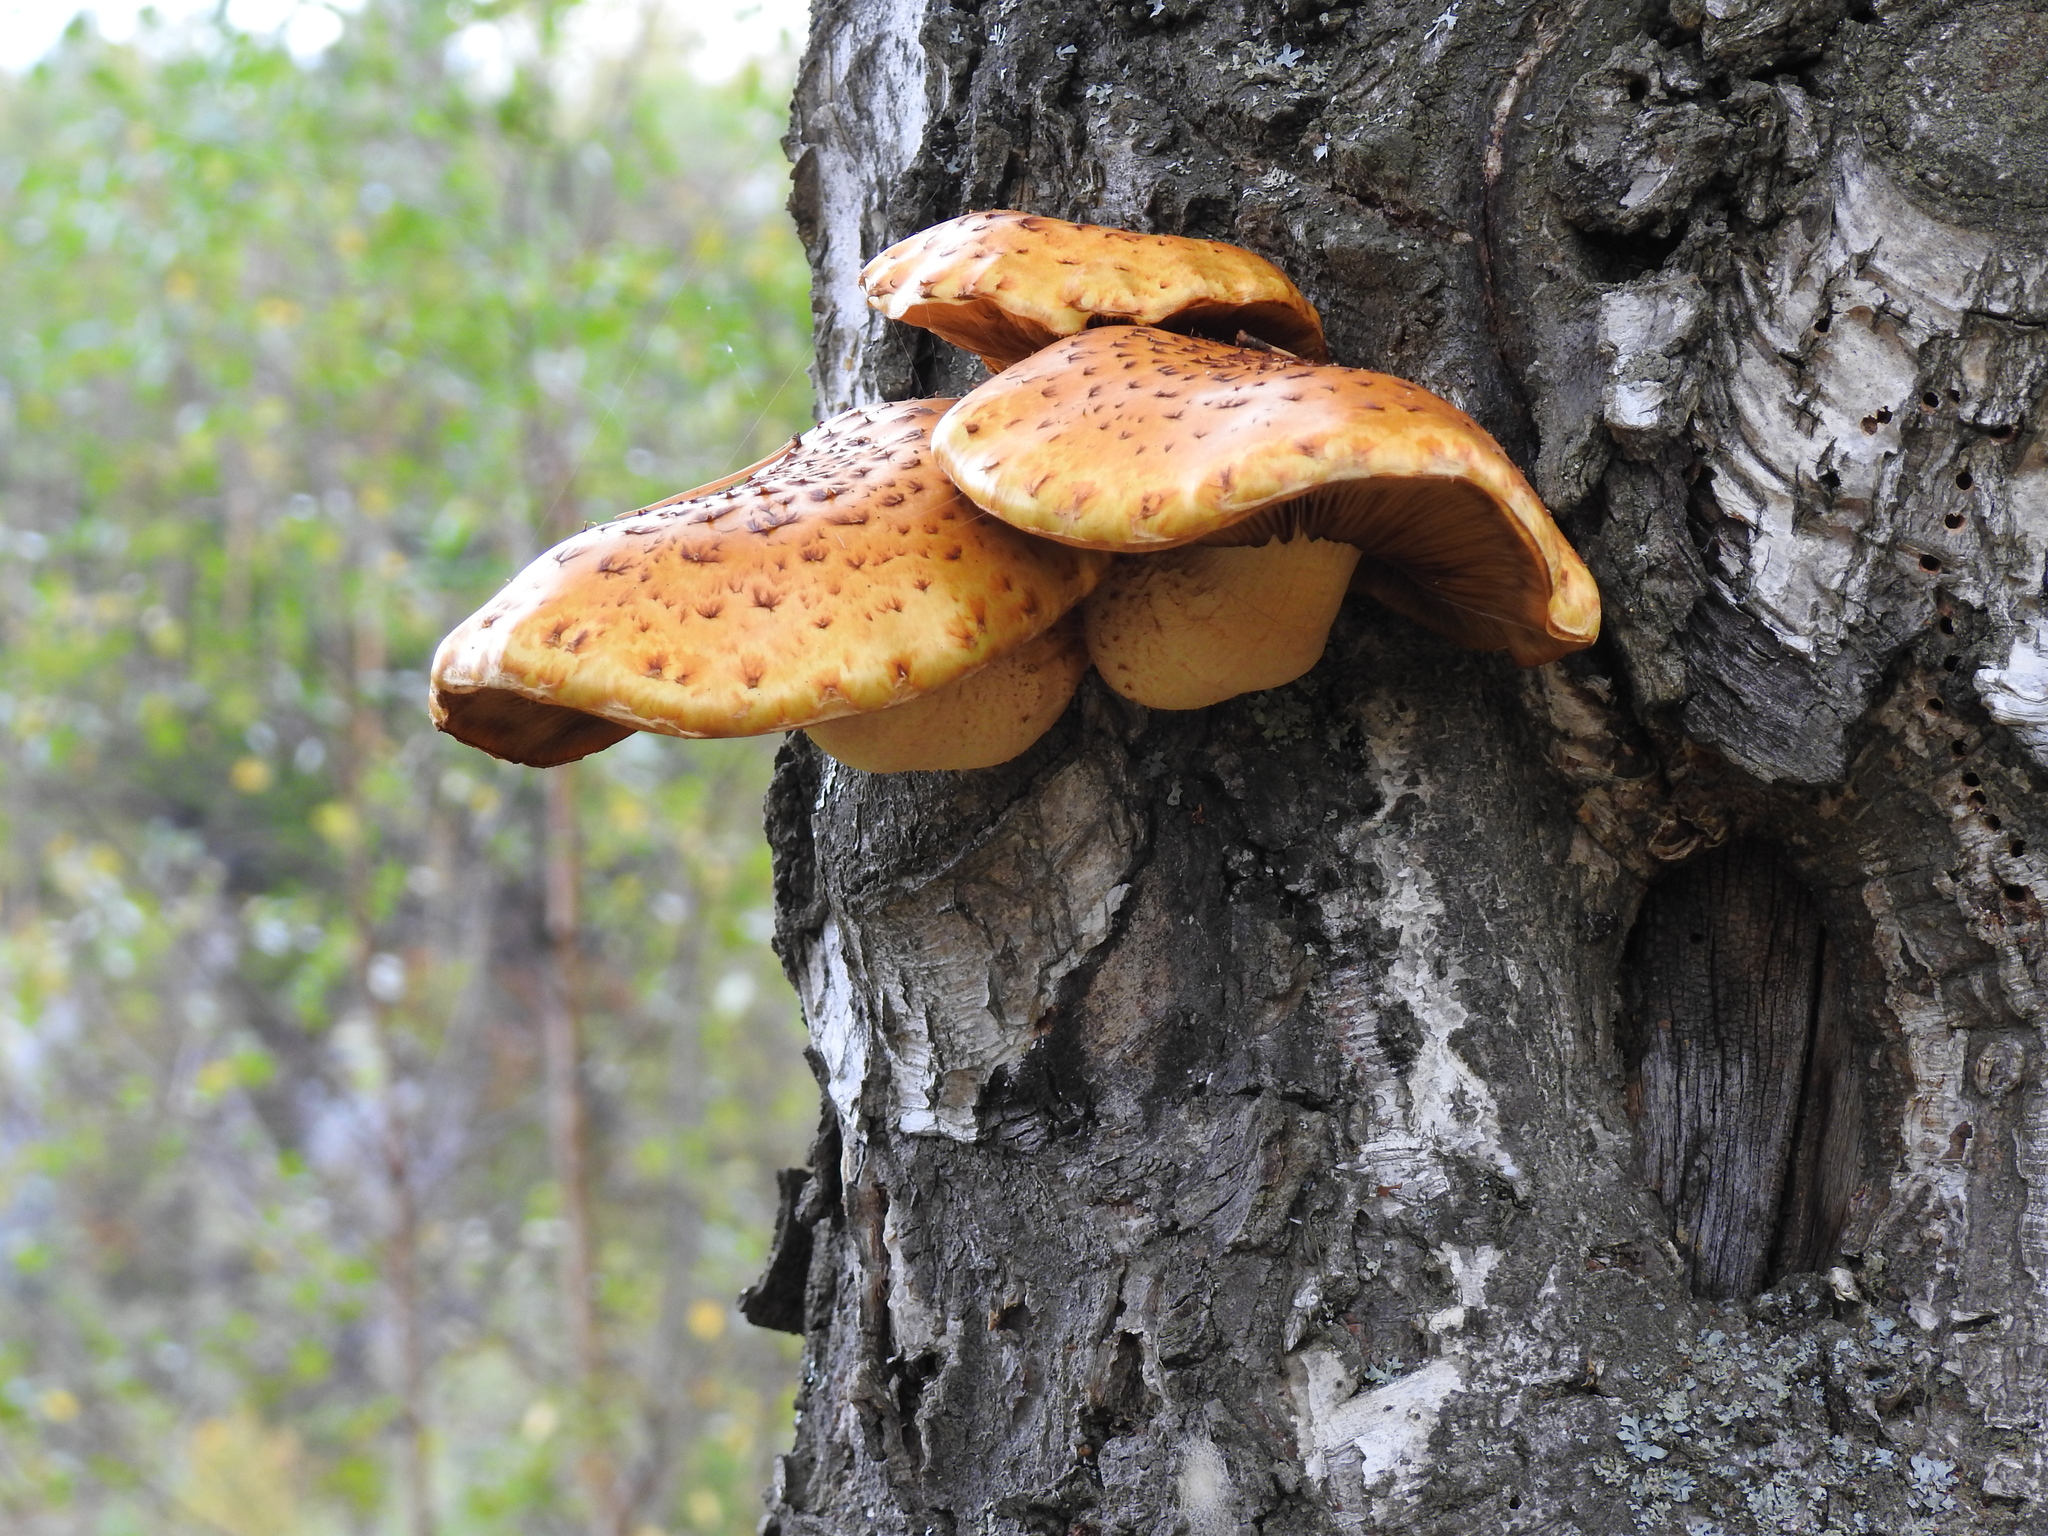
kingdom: Fungi
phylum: Basidiomycota
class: Agaricomycetes
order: Agaricales
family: Strophariaceae
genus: Pholiota
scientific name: Pholiota aurivella
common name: Golden scalycap
